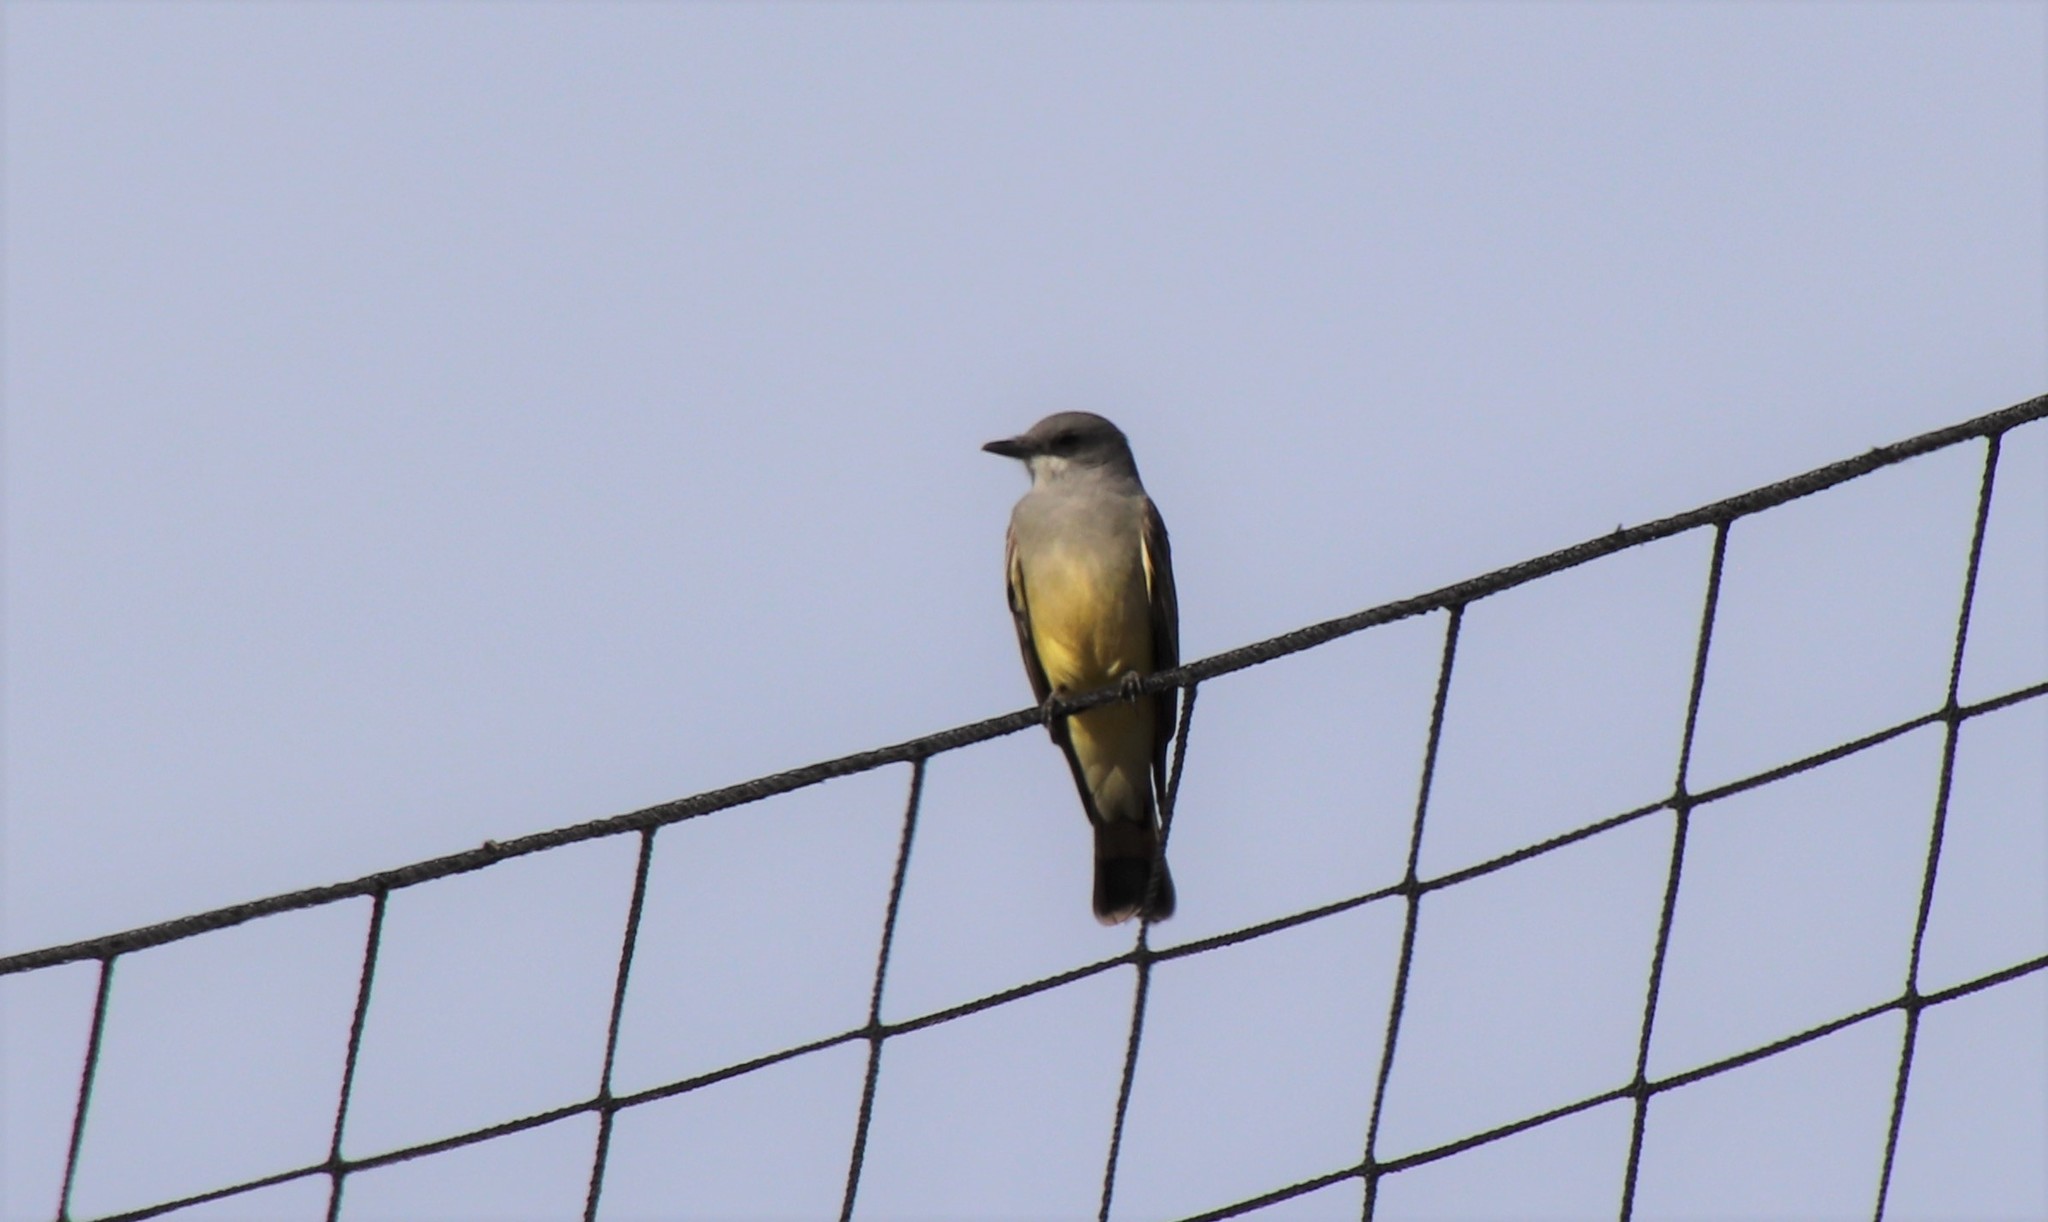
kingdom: Animalia
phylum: Chordata
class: Aves
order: Passeriformes
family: Tyrannidae
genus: Tyrannus
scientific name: Tyrannus vociferans
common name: Cassin's kingbird
